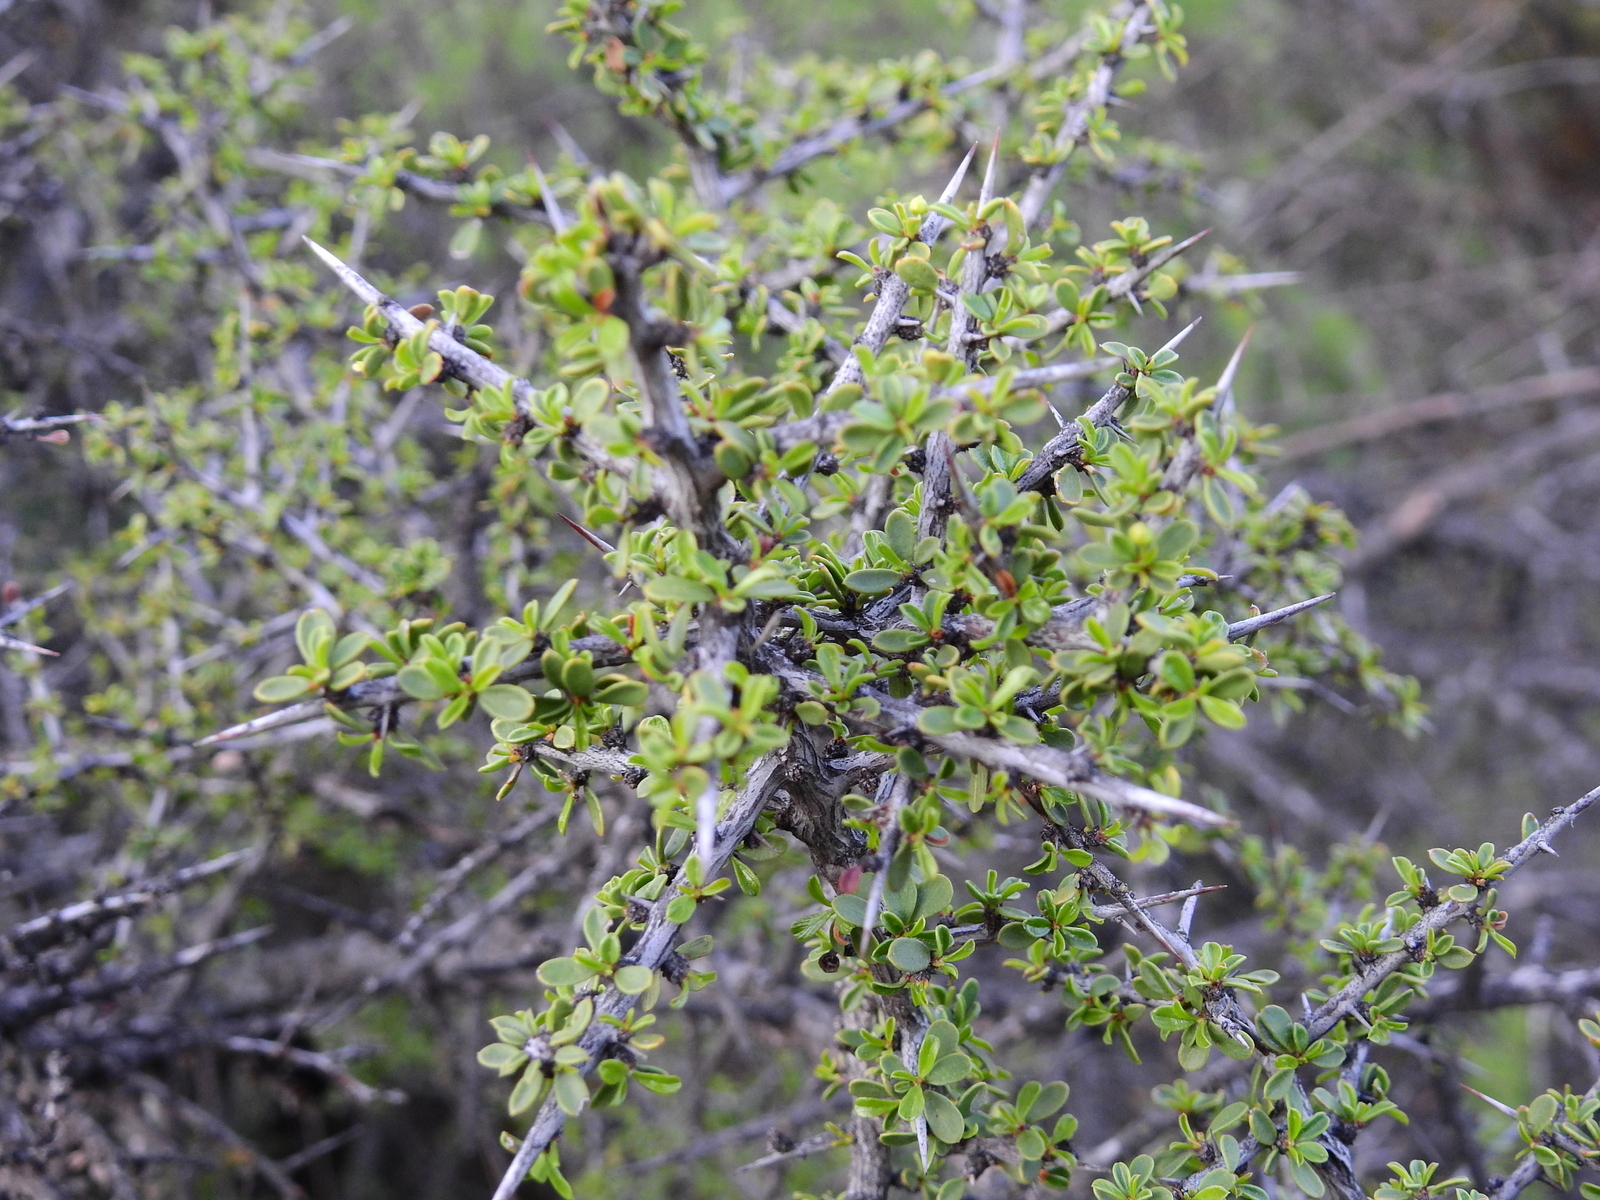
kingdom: Plantae
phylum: Tracheophyta
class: Magnoliopsida
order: Rosales
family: Rhamnaceae
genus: Condalia
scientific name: Condalia microphylla
